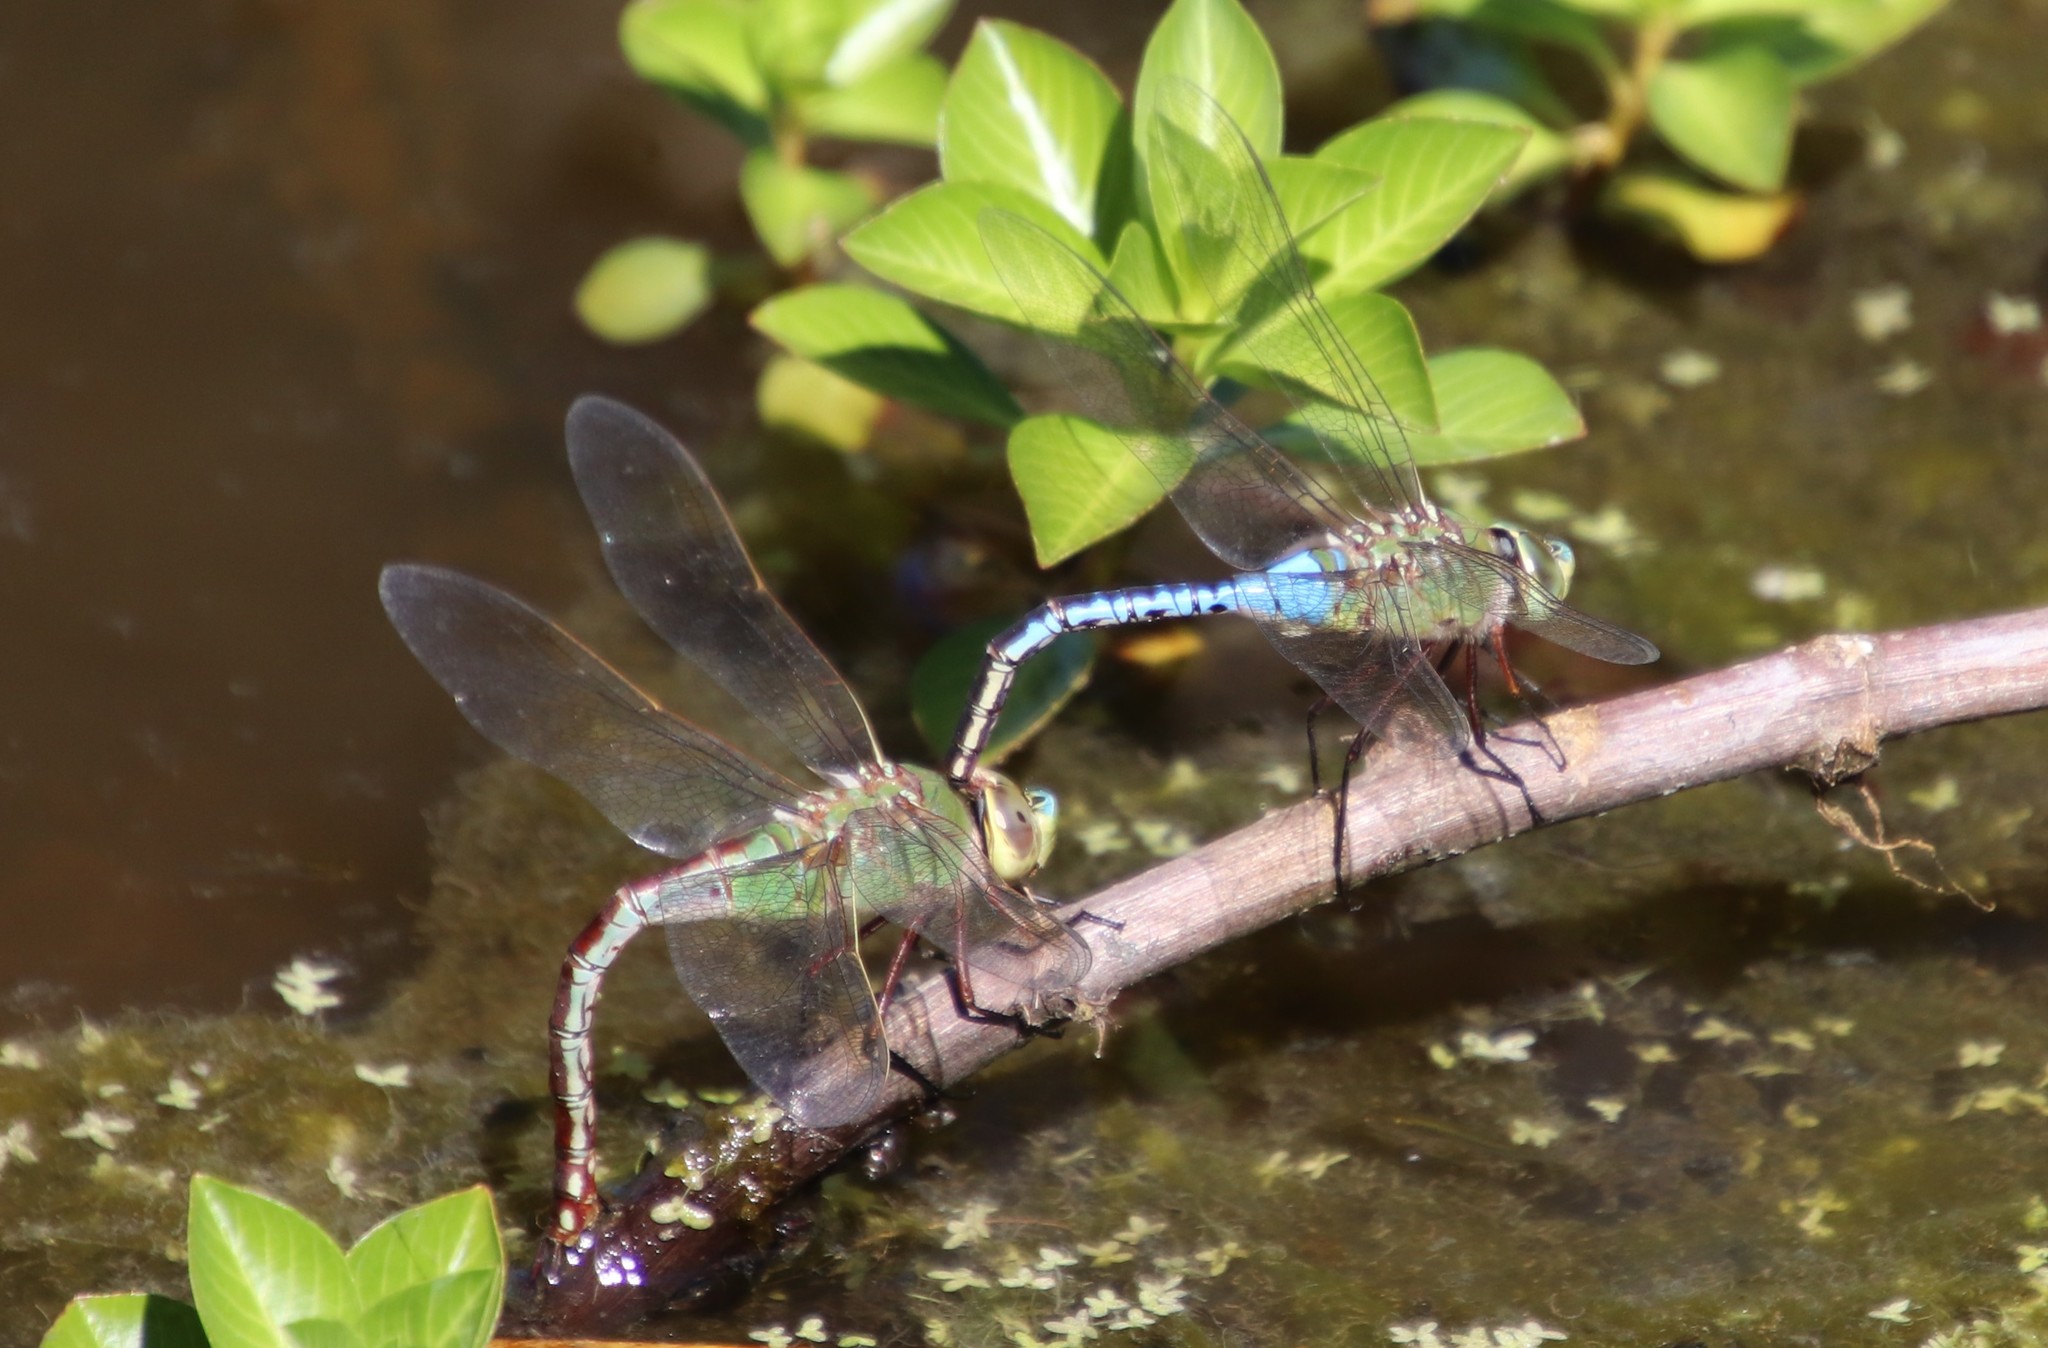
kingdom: Animalia
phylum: Arthropoda
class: Insecta
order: Odonata
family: Aeshnidae
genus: Anax
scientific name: Anax junius
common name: Common green darner
